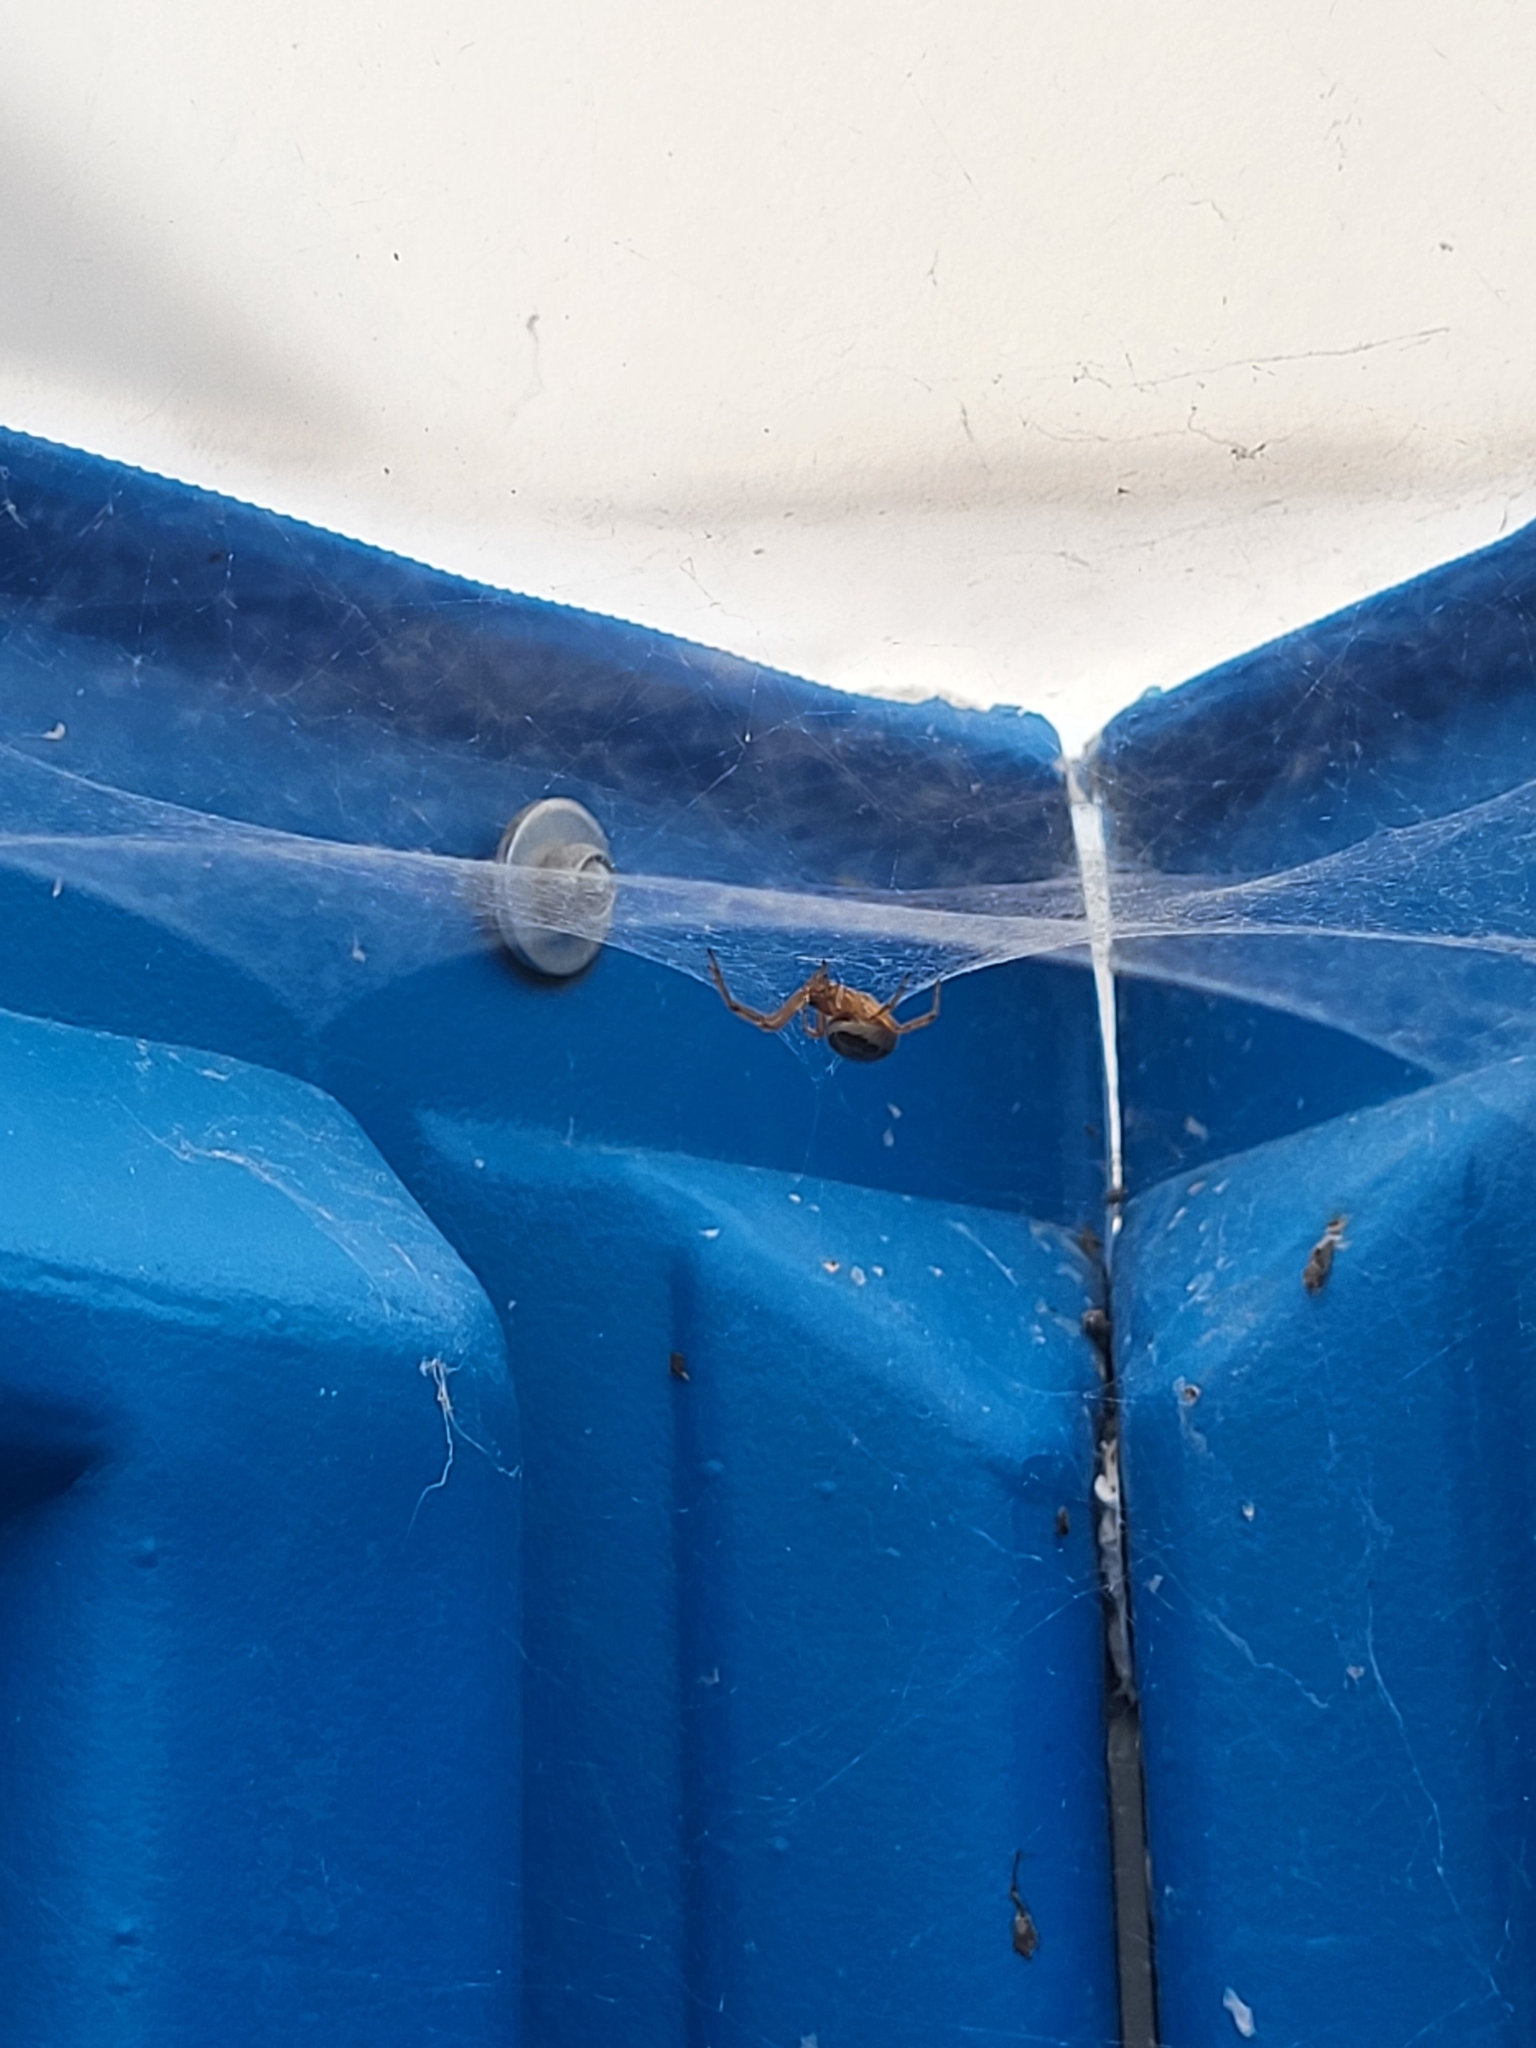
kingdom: Animalia
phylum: Arthropoda
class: Arachnida
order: Araneae
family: Theridiidae
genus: Steatoda
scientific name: Steatoda nobilis
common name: Cobweb weaver
